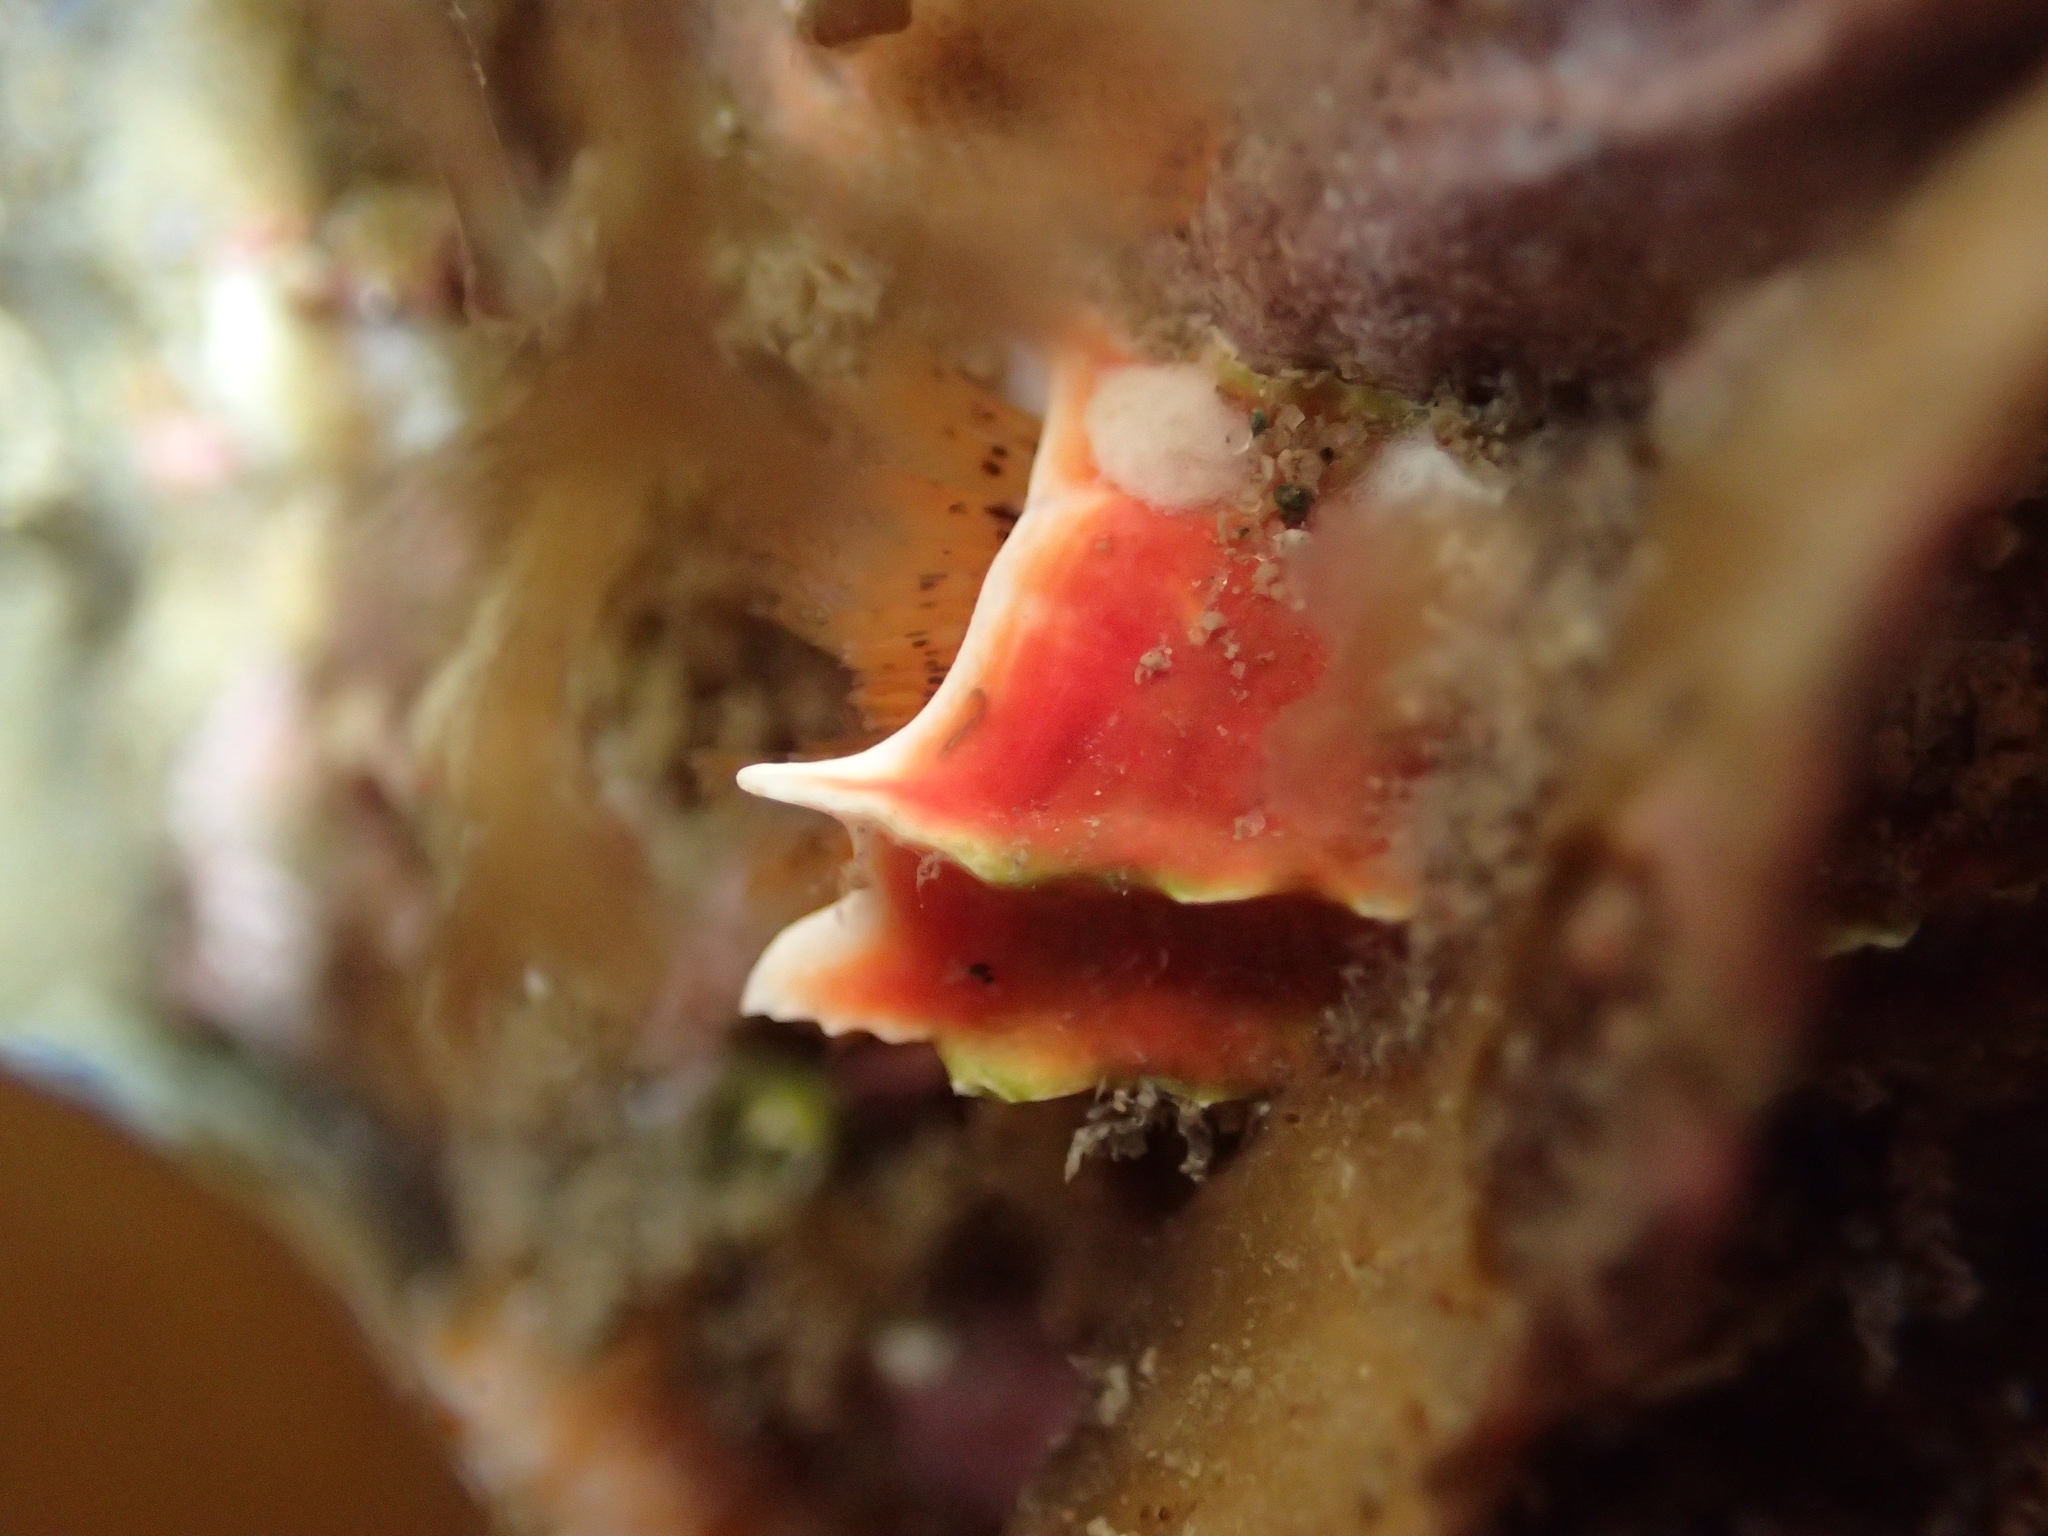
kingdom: Animalia
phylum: Annelida
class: Polychaeta
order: Sabellida
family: Serpulidae
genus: Galeolaria
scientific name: Galeolaria hystrix
